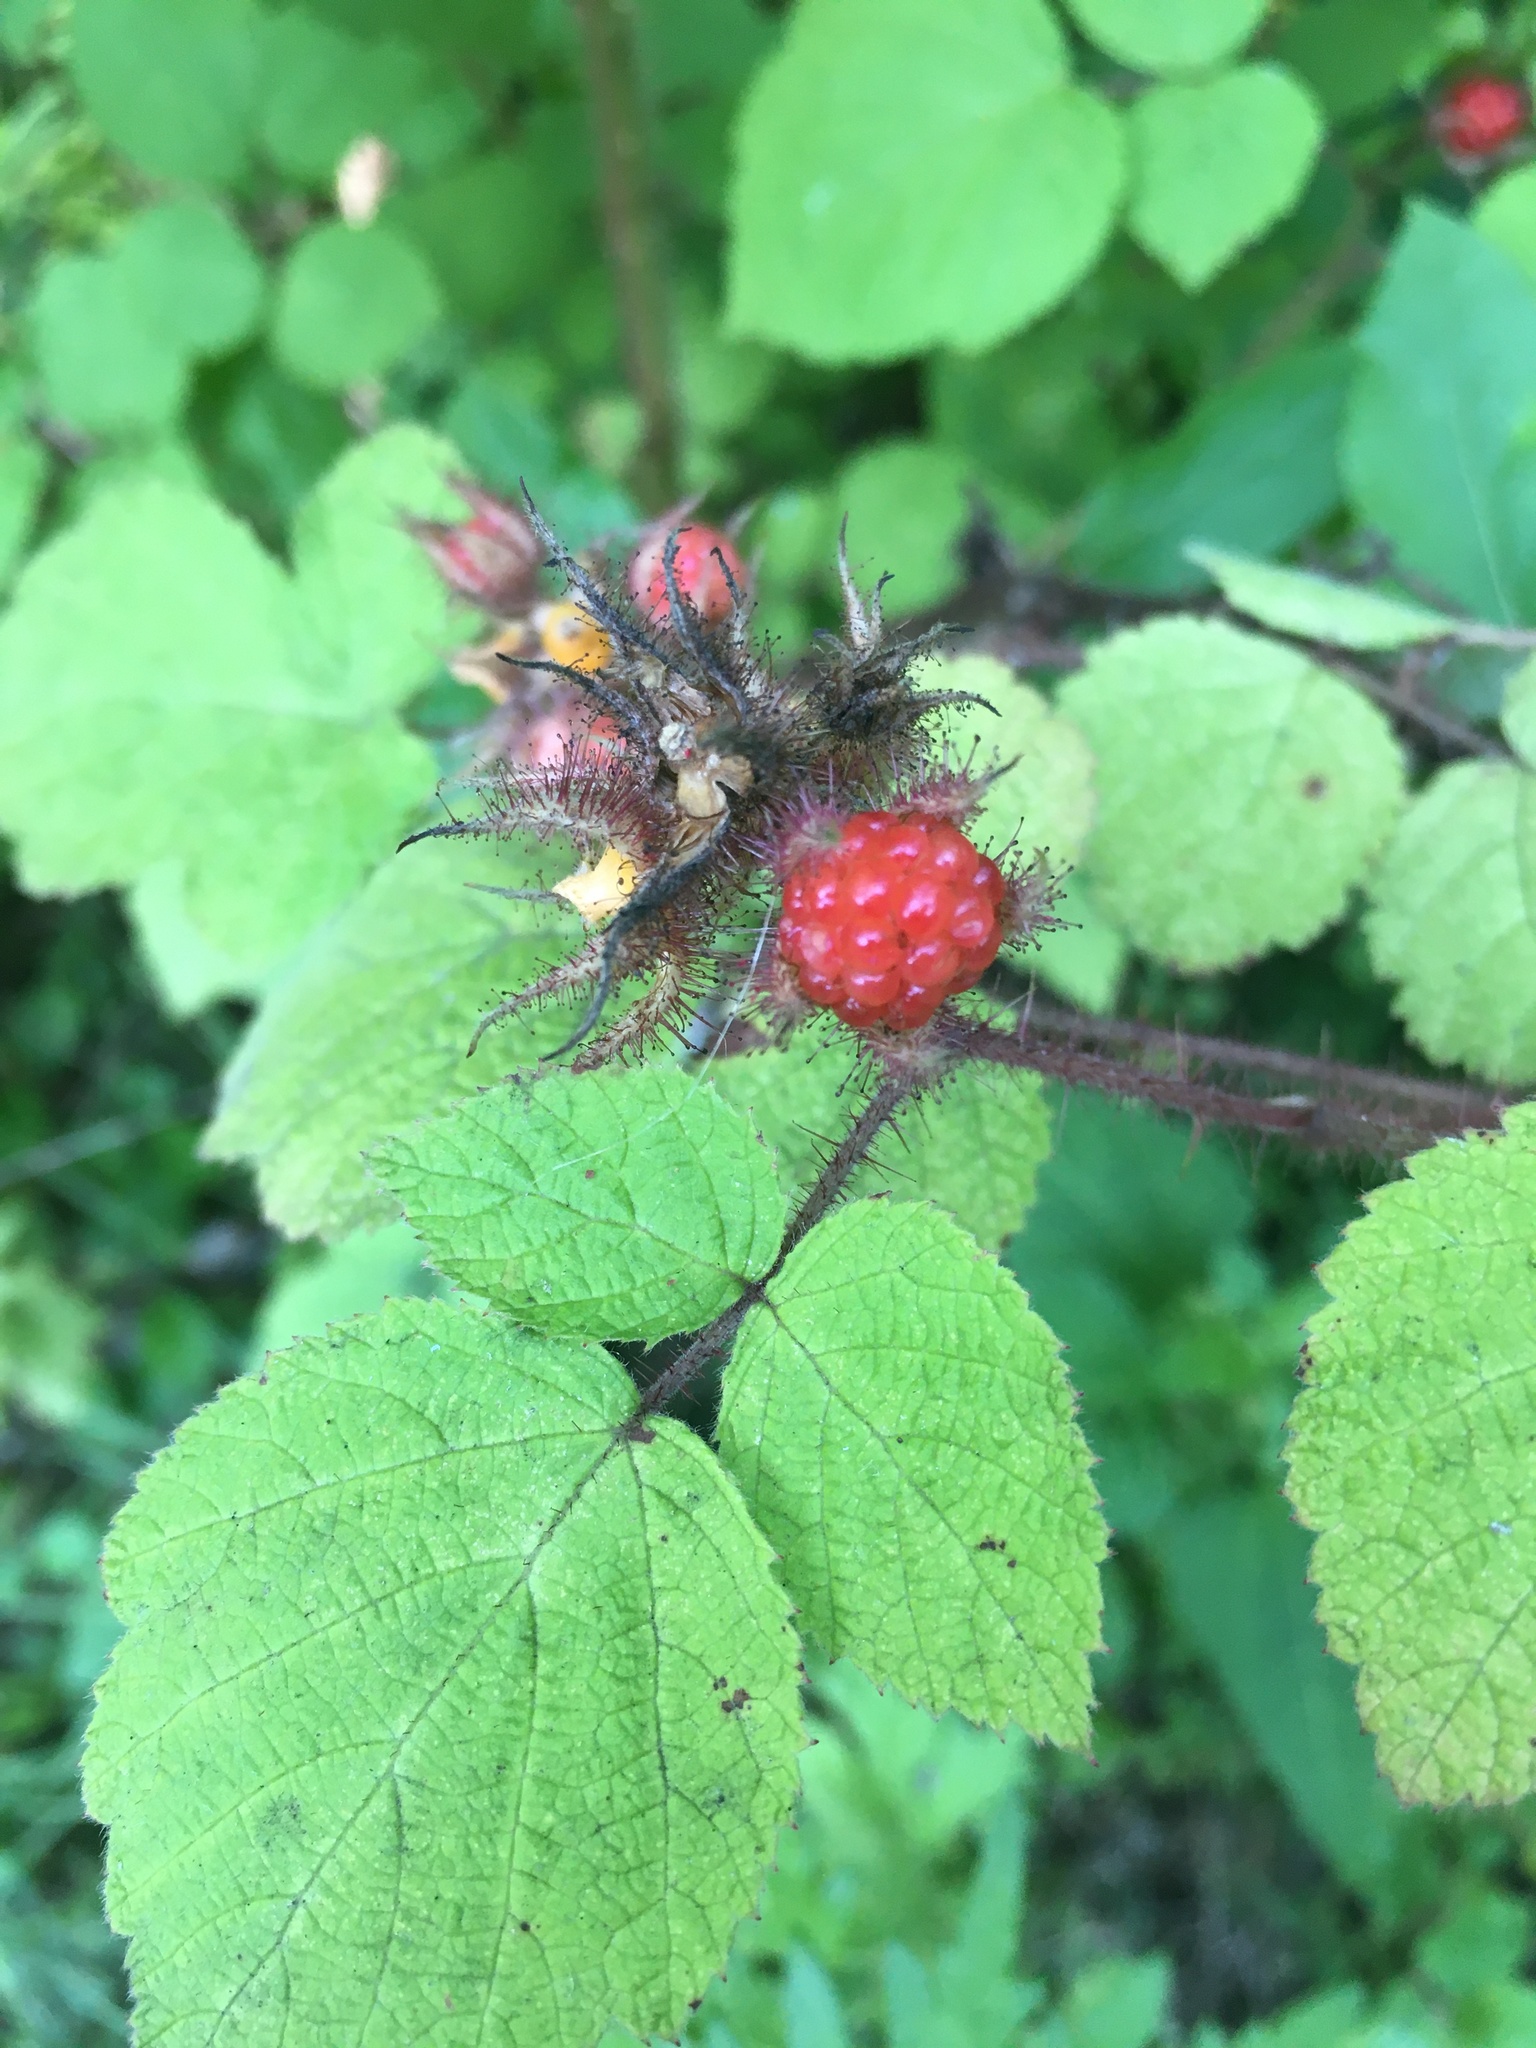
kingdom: Plantae
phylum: Tracheophyta
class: Magnoliopsida
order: Rosales
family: Rosaceae
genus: Rubus
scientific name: Rubus phoenicolasius
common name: Japanese wineberry
